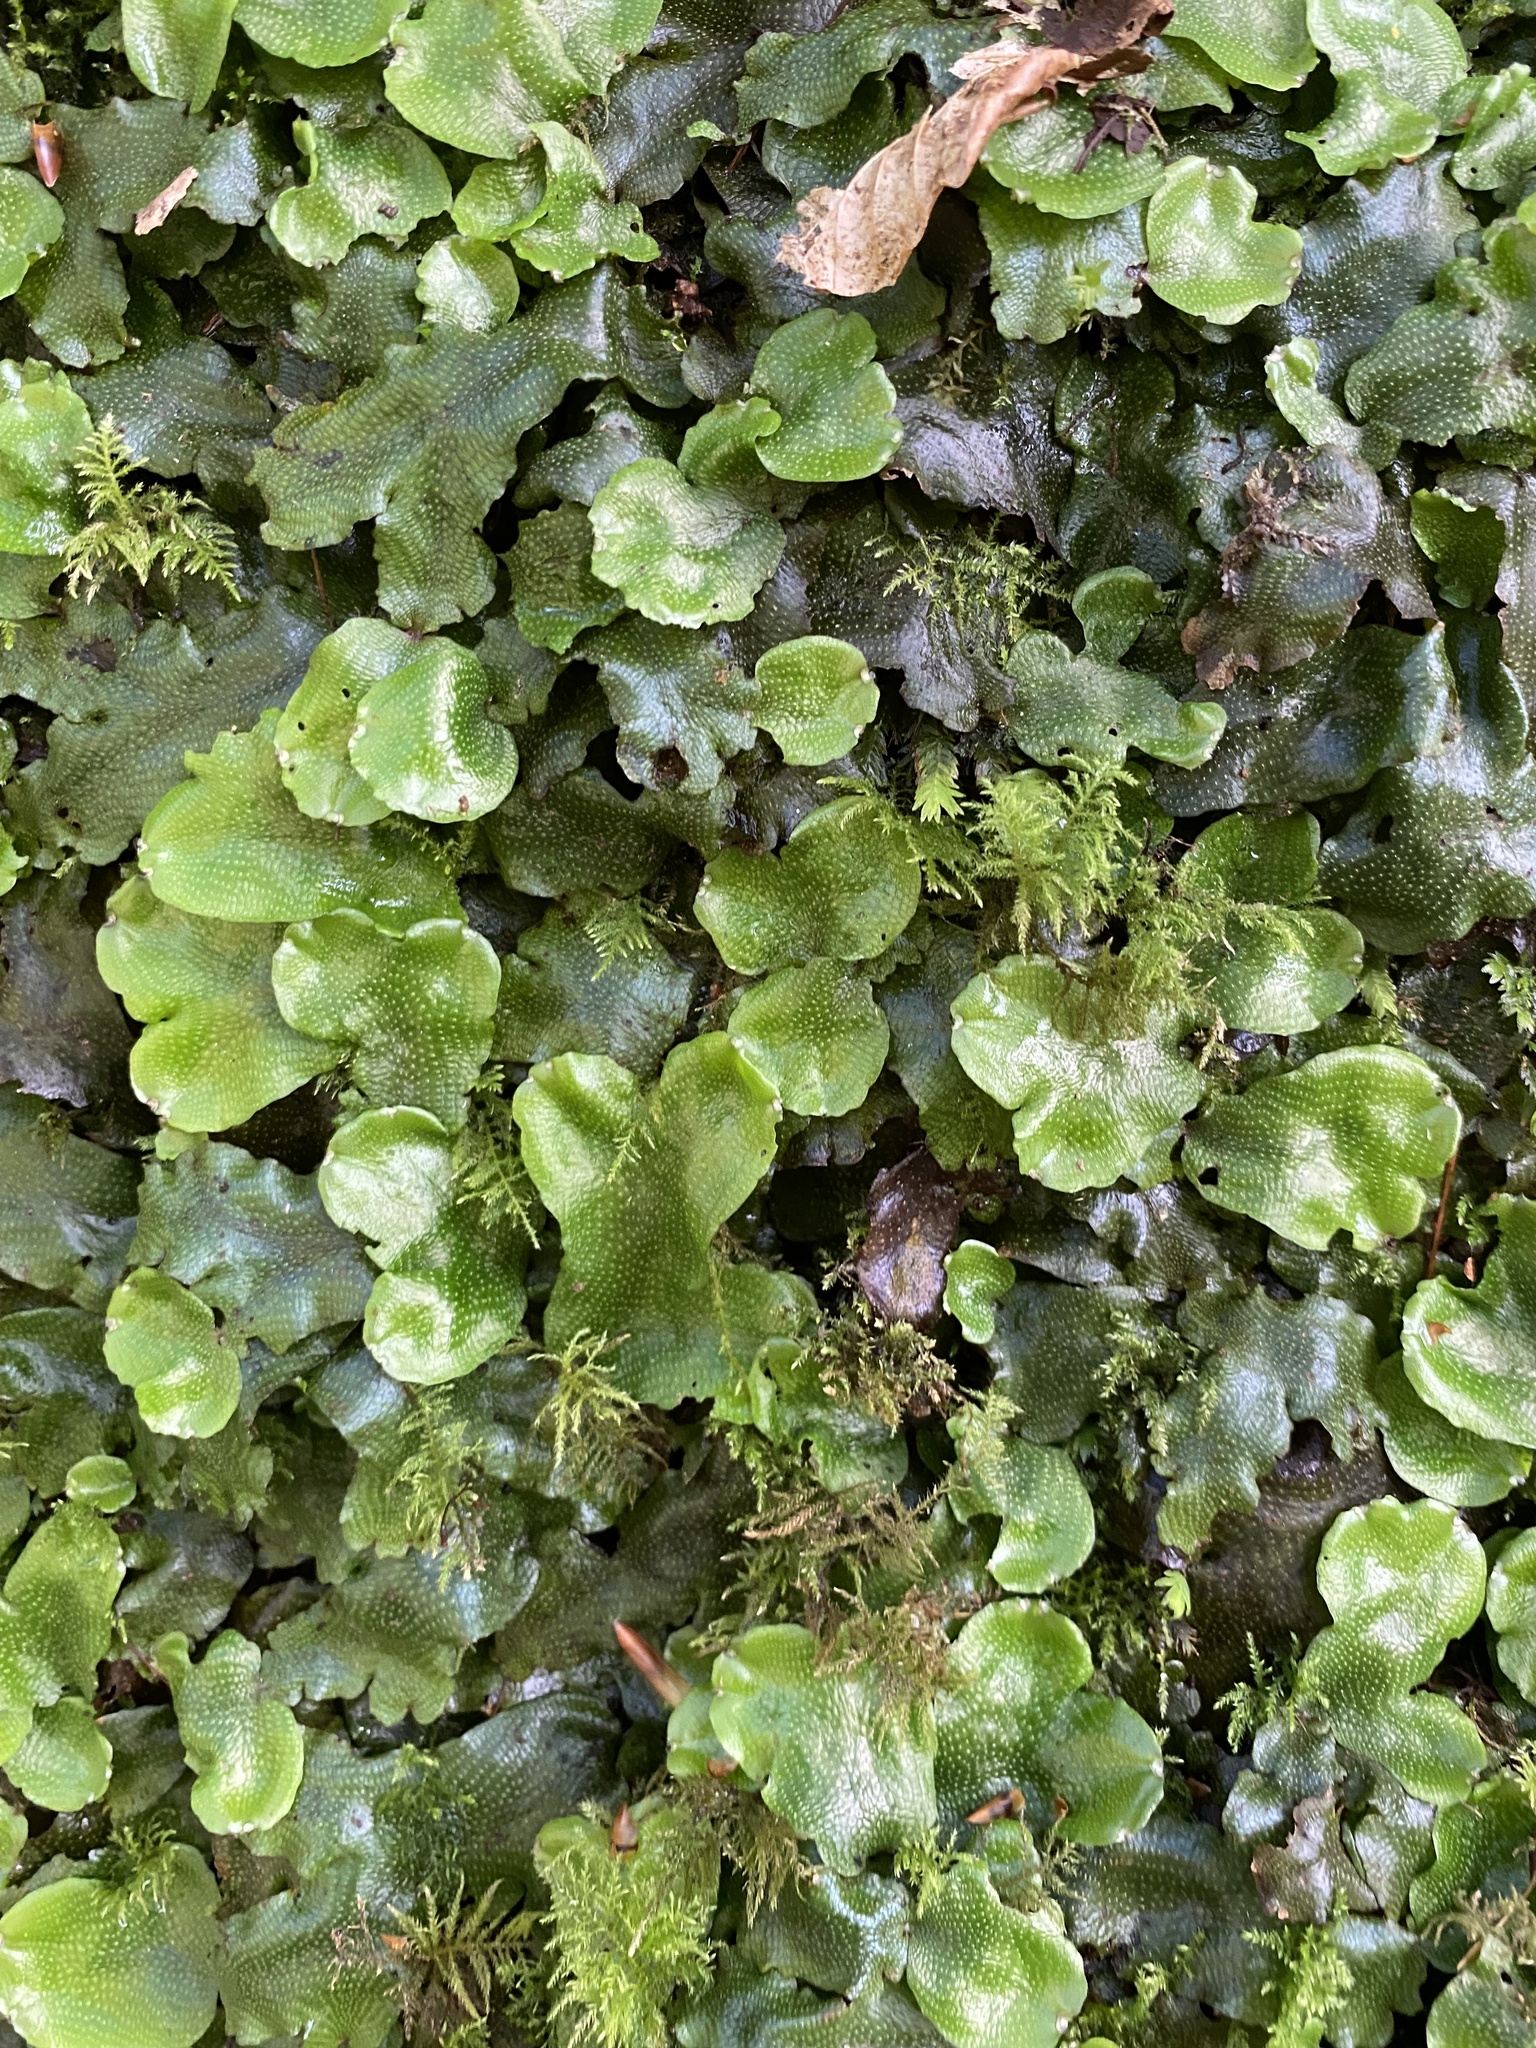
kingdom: Plantae
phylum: Marchantiophyta
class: Marchantiopsida
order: Marchantiales
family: Conocephalaceae
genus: Conocephalum
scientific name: Conocephalum conicum
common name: Great scented liverwort
